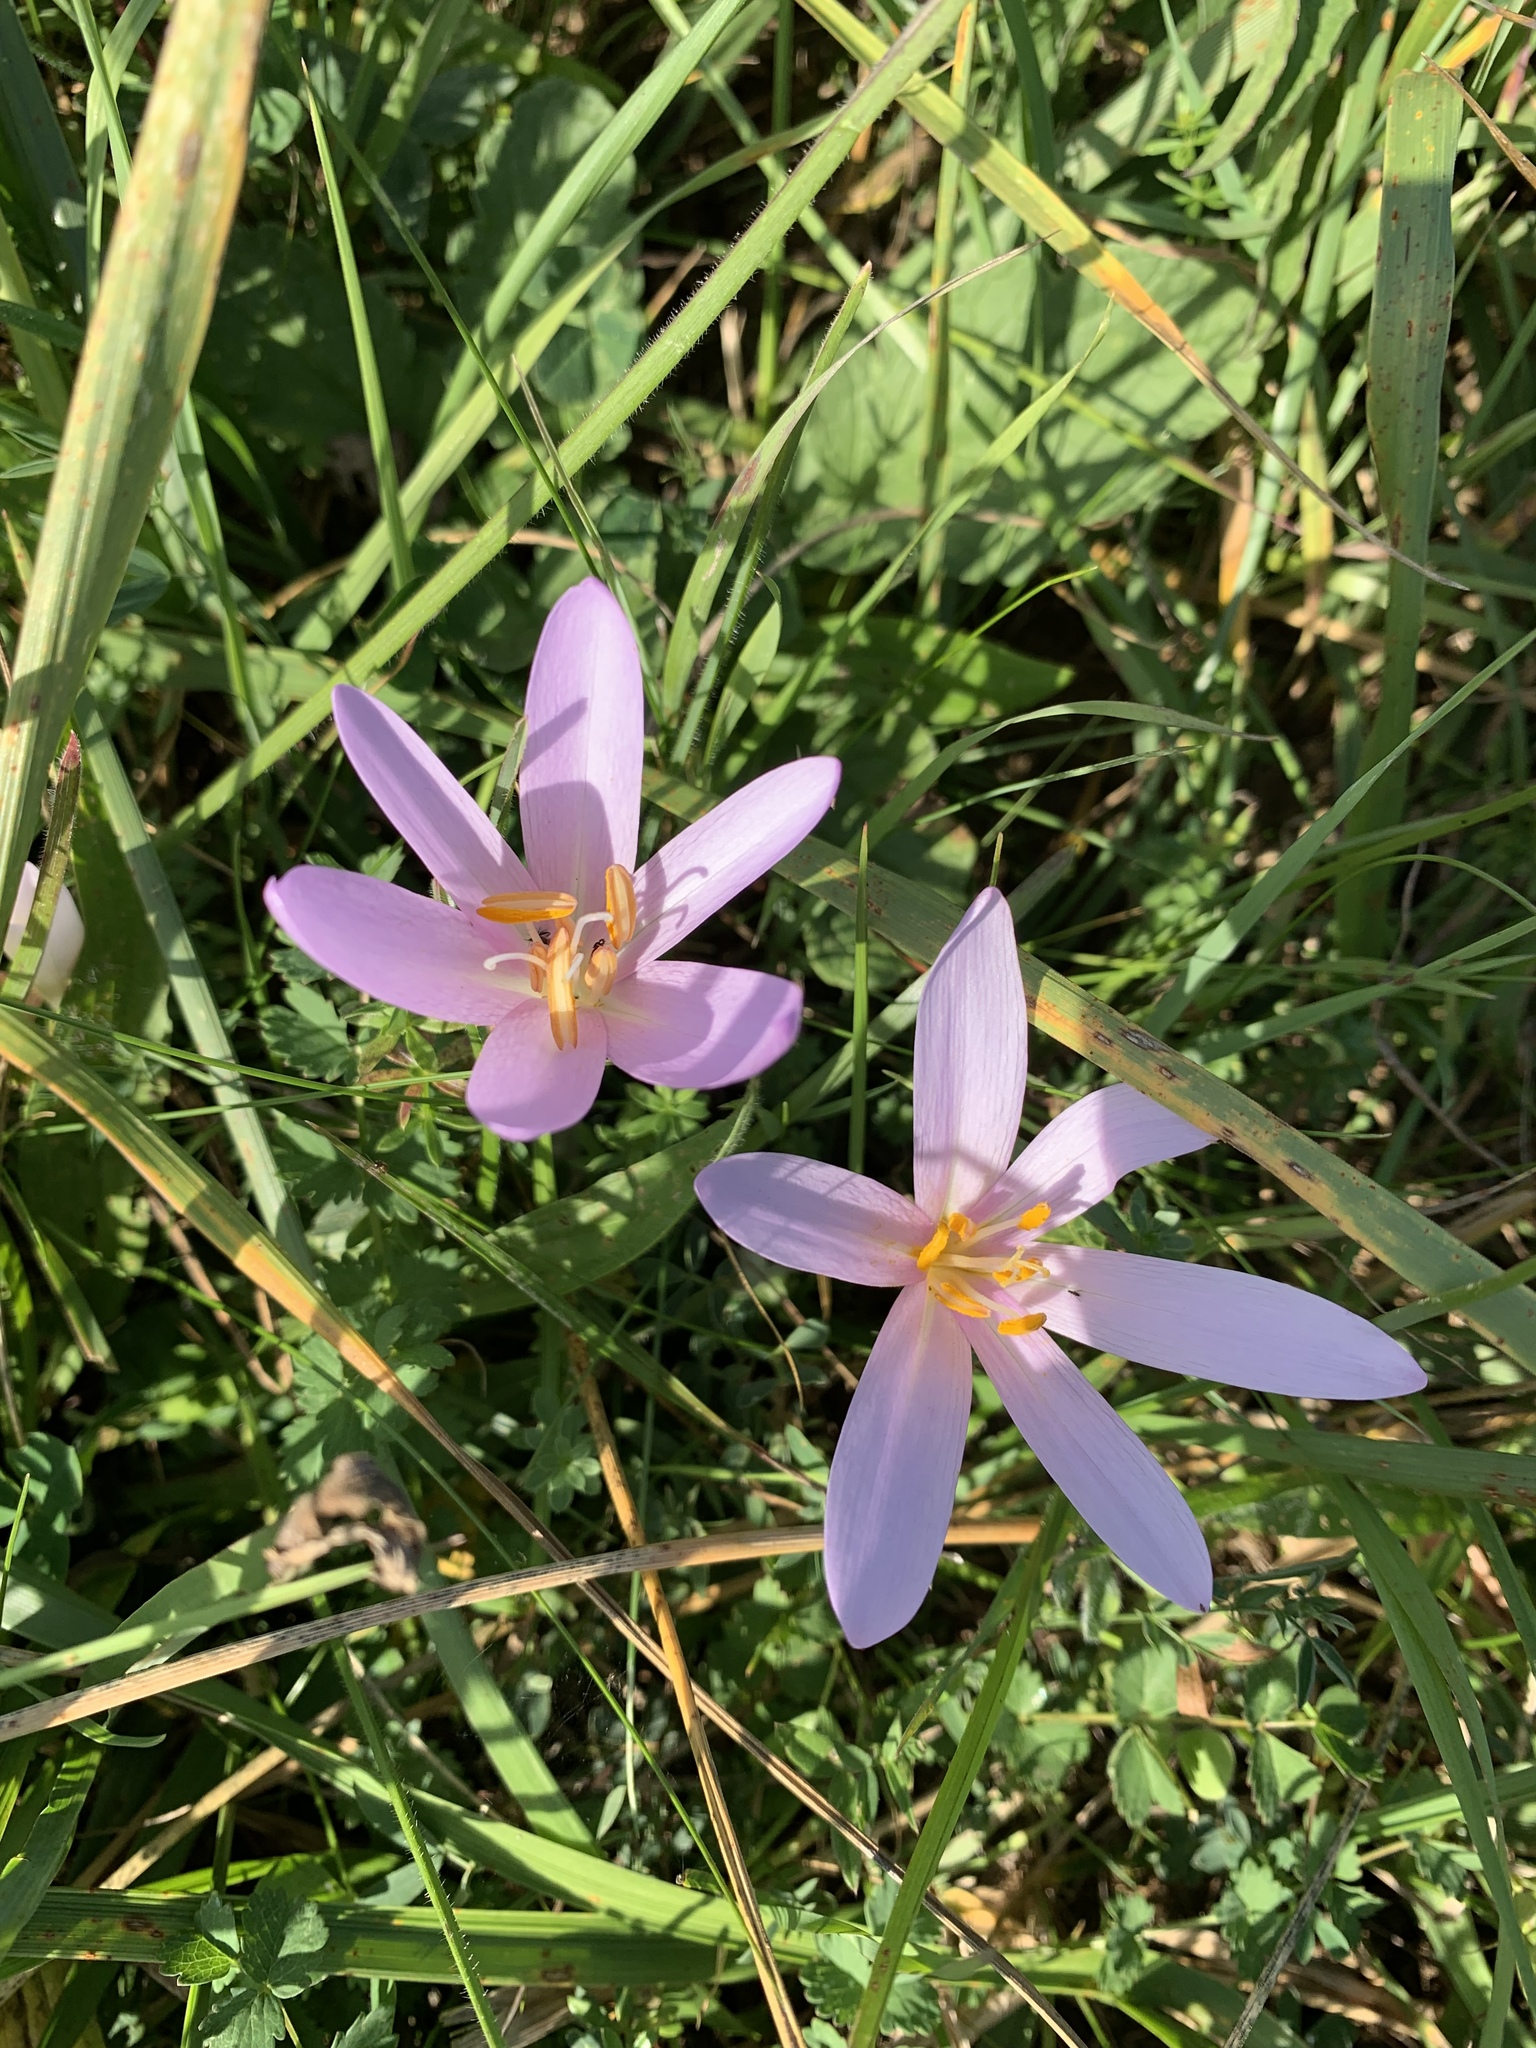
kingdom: Plantae
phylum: Tracheophyta
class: Liliopsida
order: Liliales
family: Colchicaceae
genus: Colchicum
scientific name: Colchicum autumnale
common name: Autumn crocus
